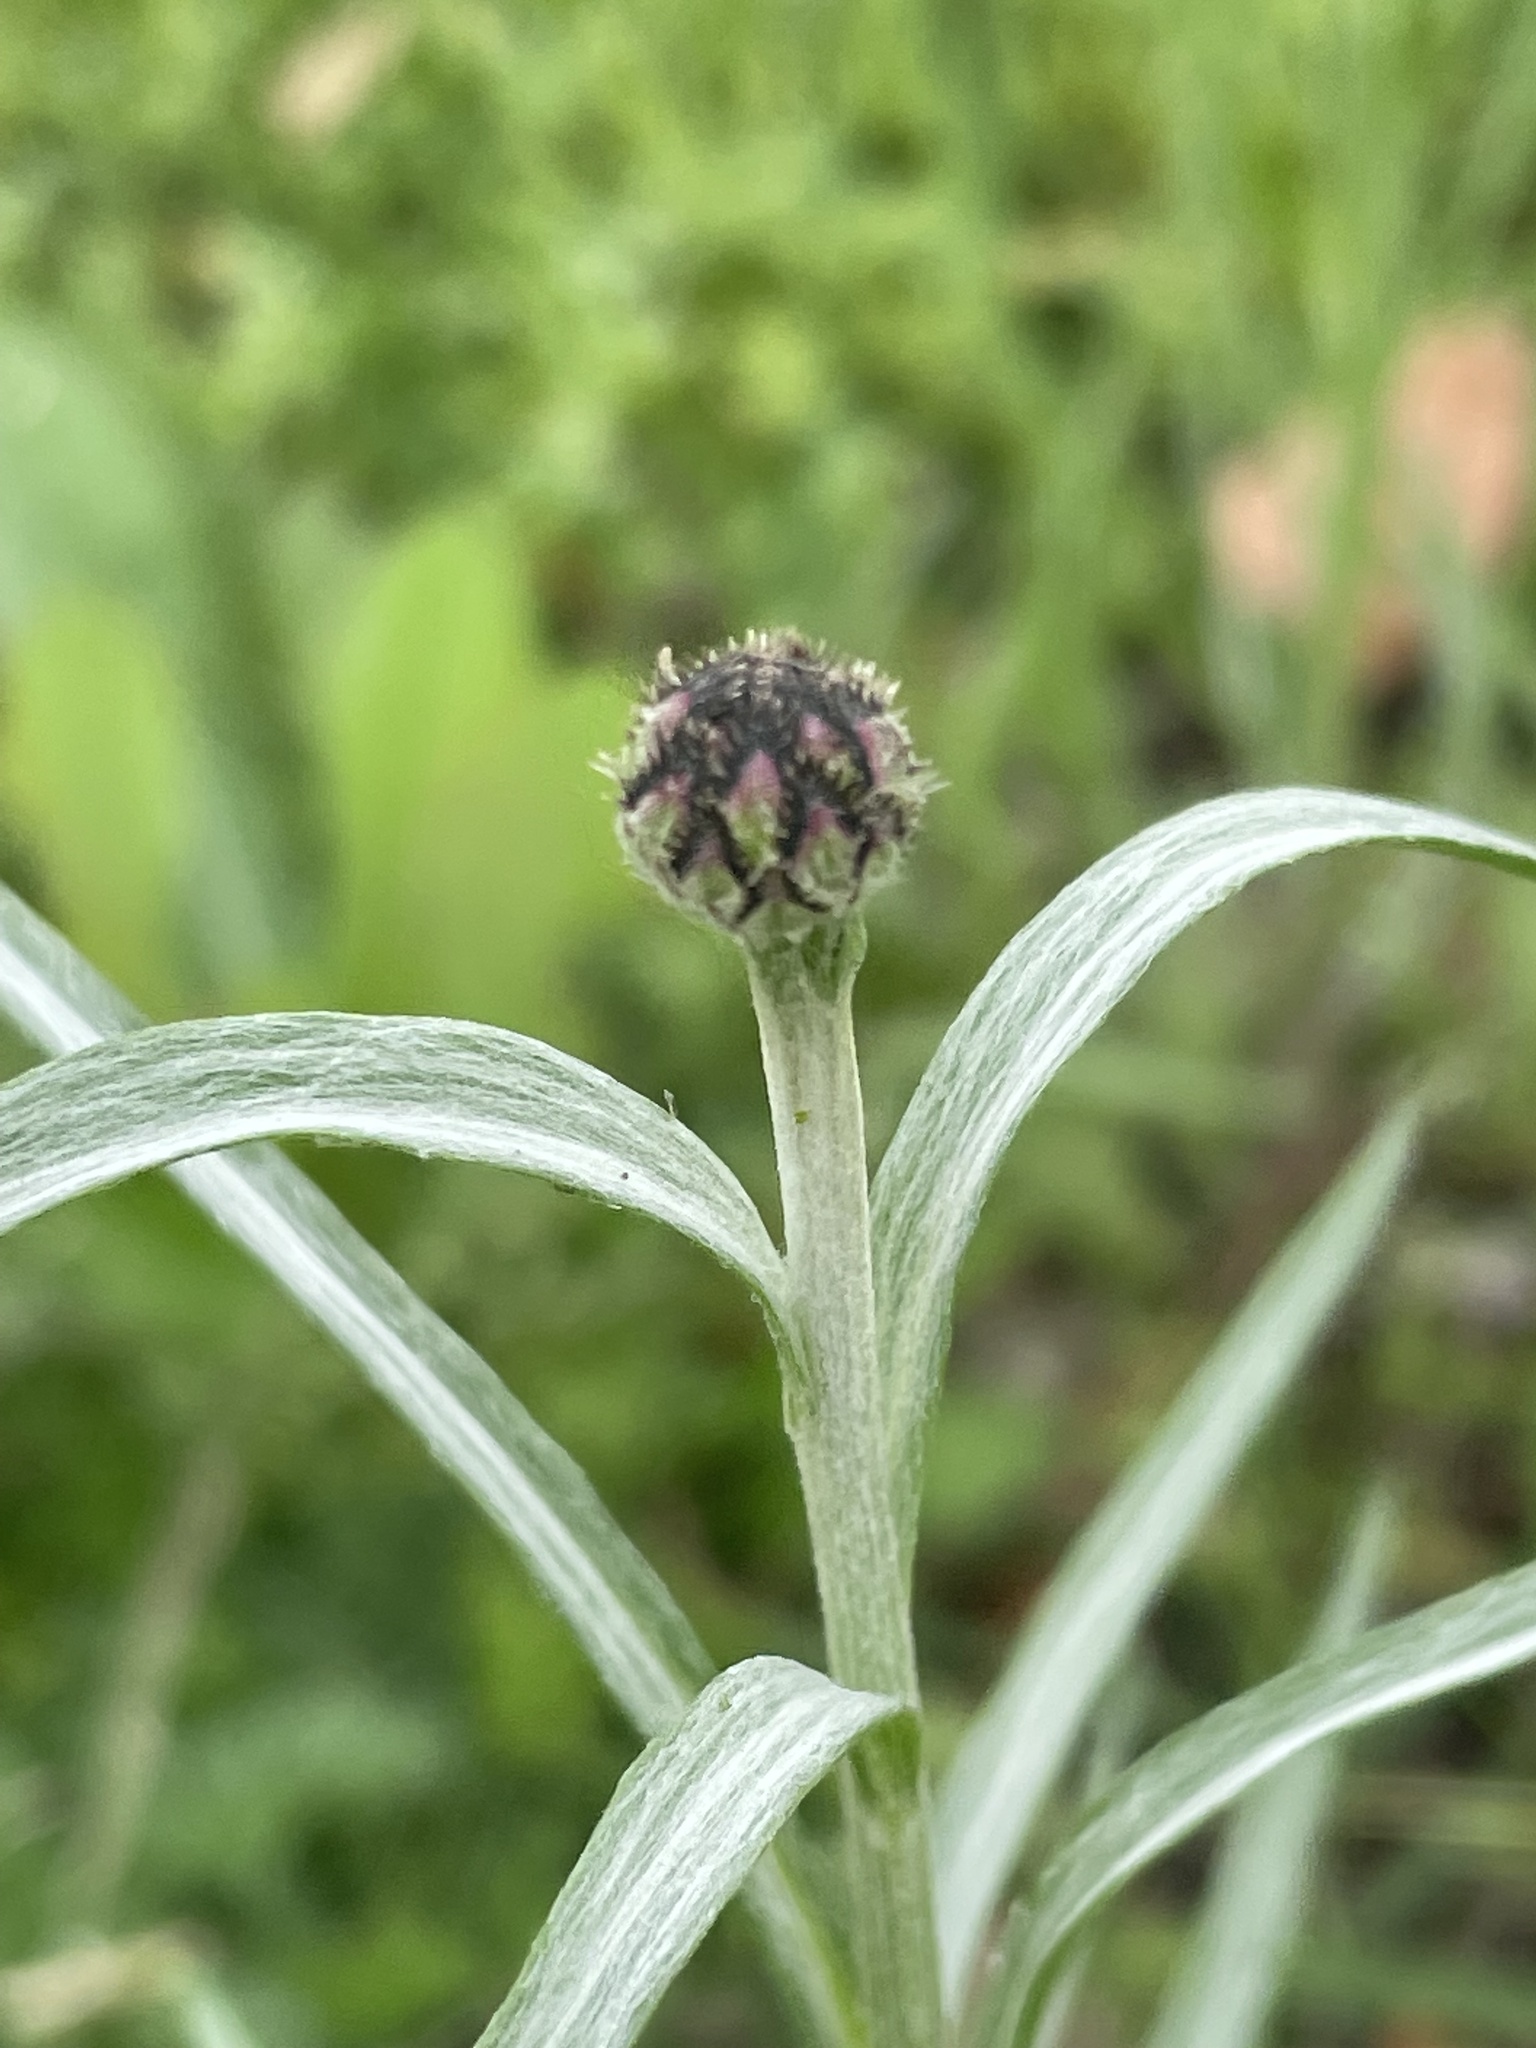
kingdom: Plantae
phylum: Tracheophyta
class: Magnoliopsida
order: Asterales
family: Asteraceae
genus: Centaurea
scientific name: Centaurea cyanus
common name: Cornflower
